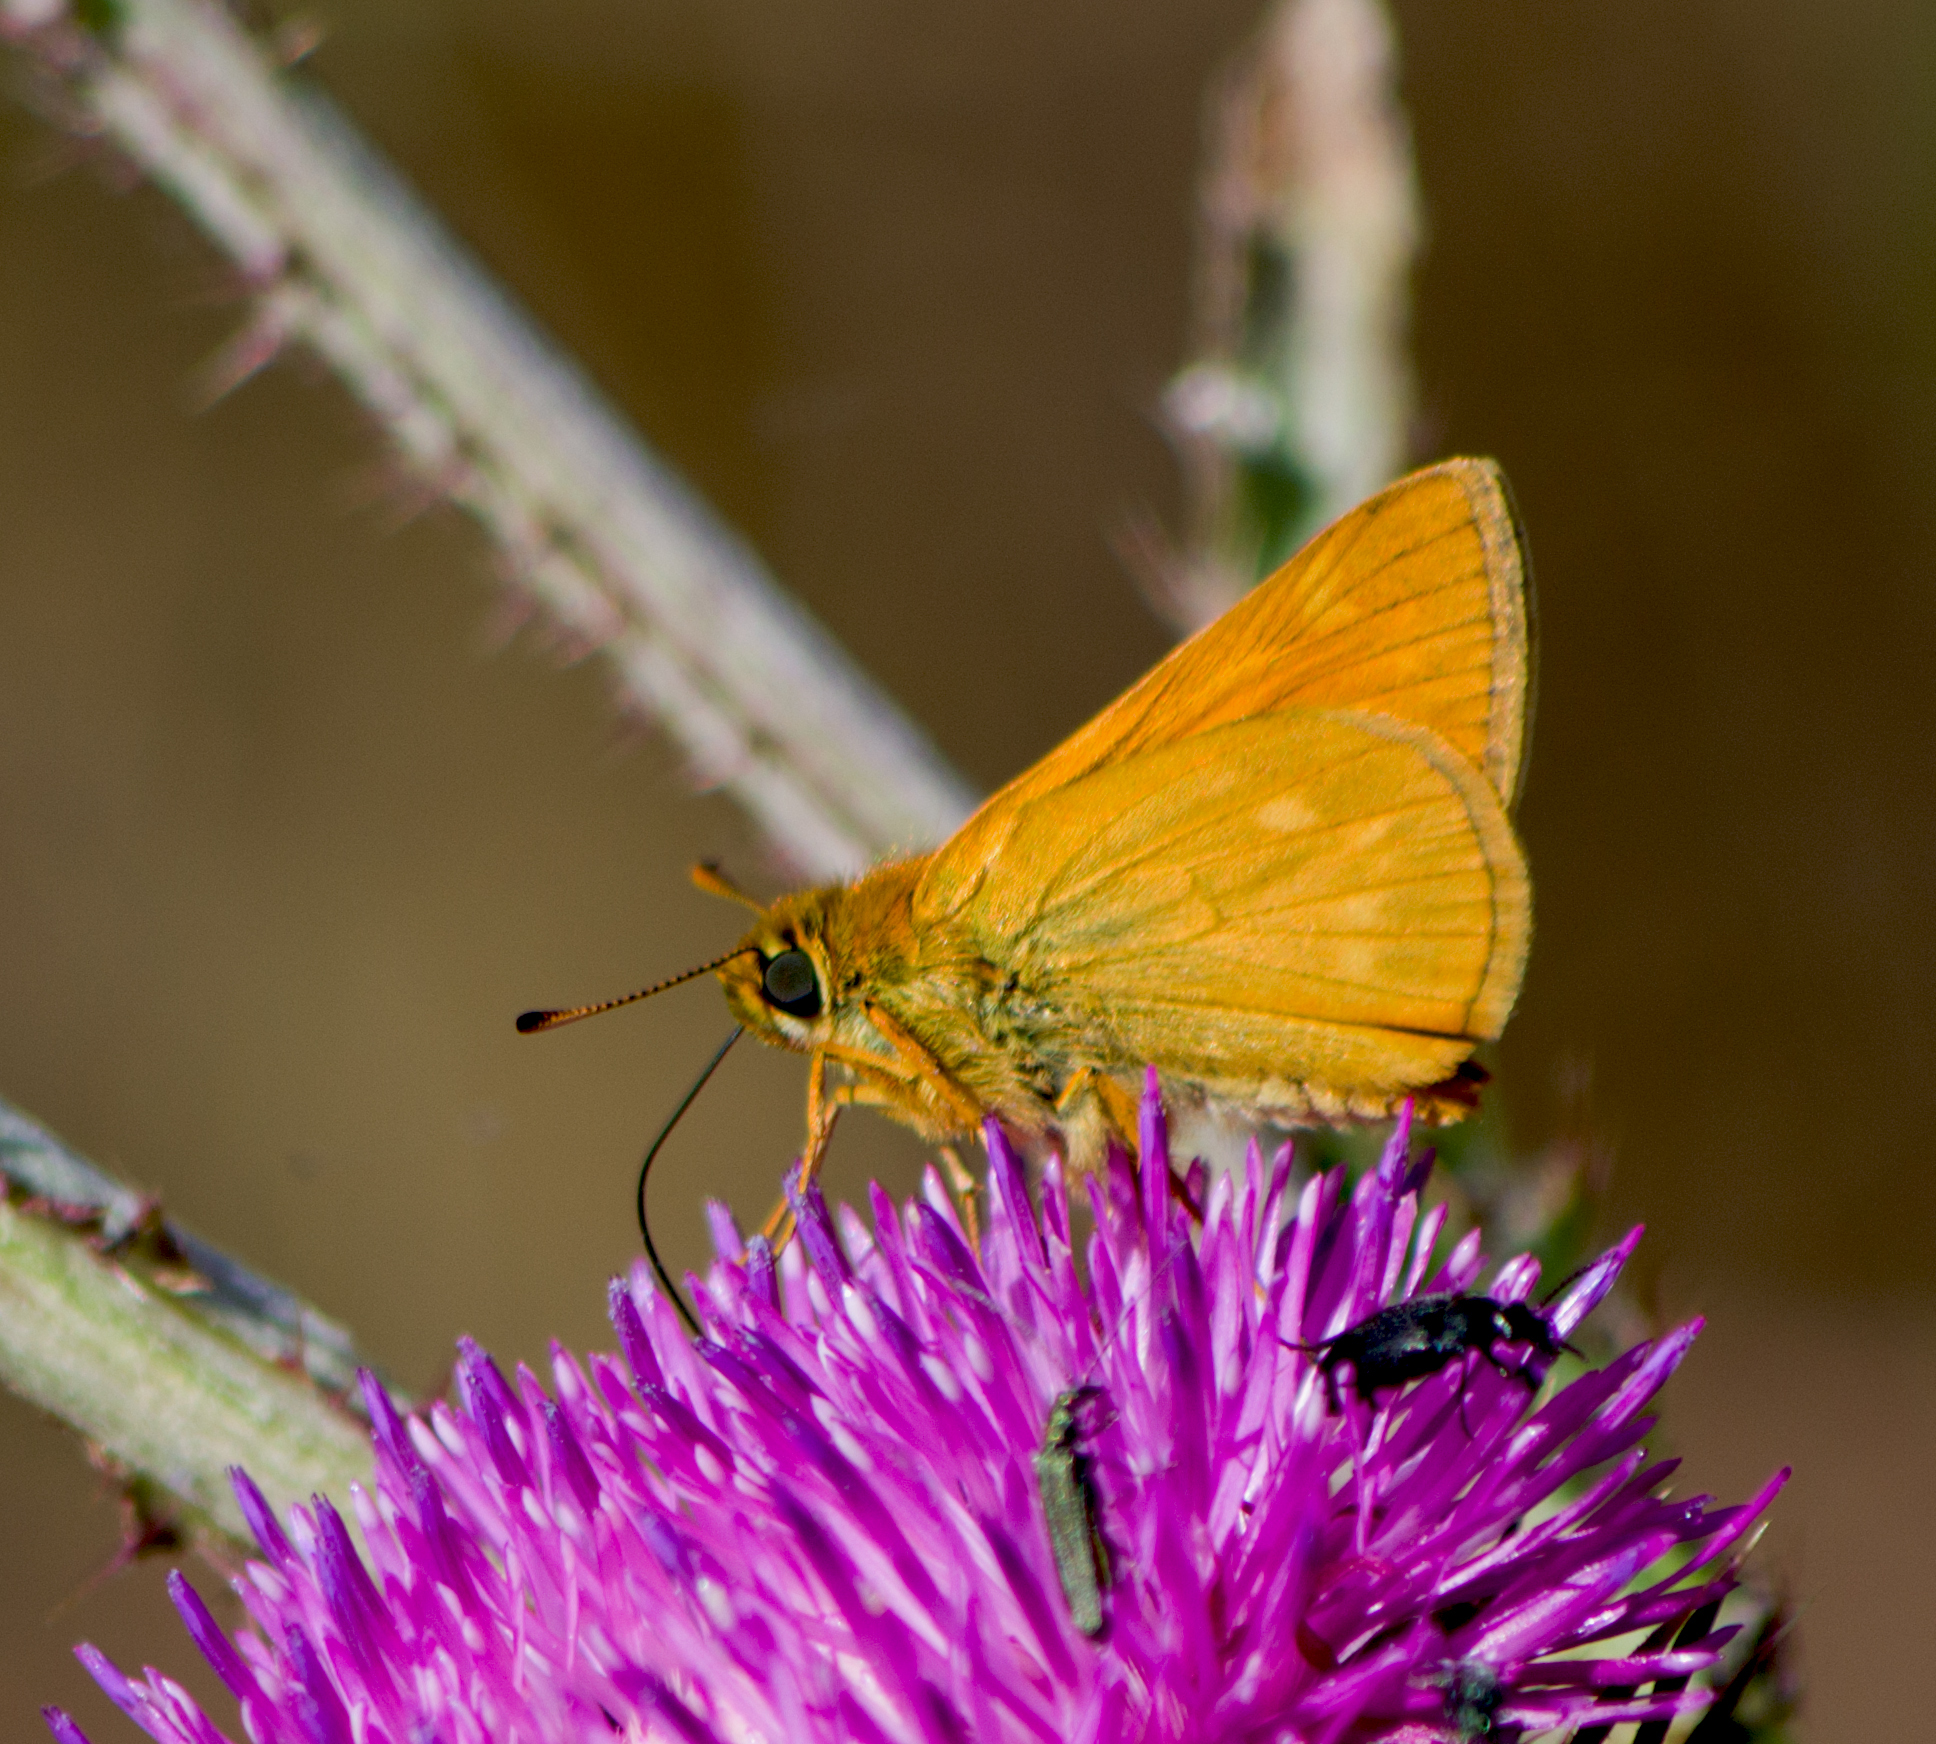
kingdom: Animalia
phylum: Arthropoda
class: Insecta
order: Lepidoptera
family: Hesperiidae
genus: Ochlodes
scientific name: Ochlodes venata
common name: Large skipper
